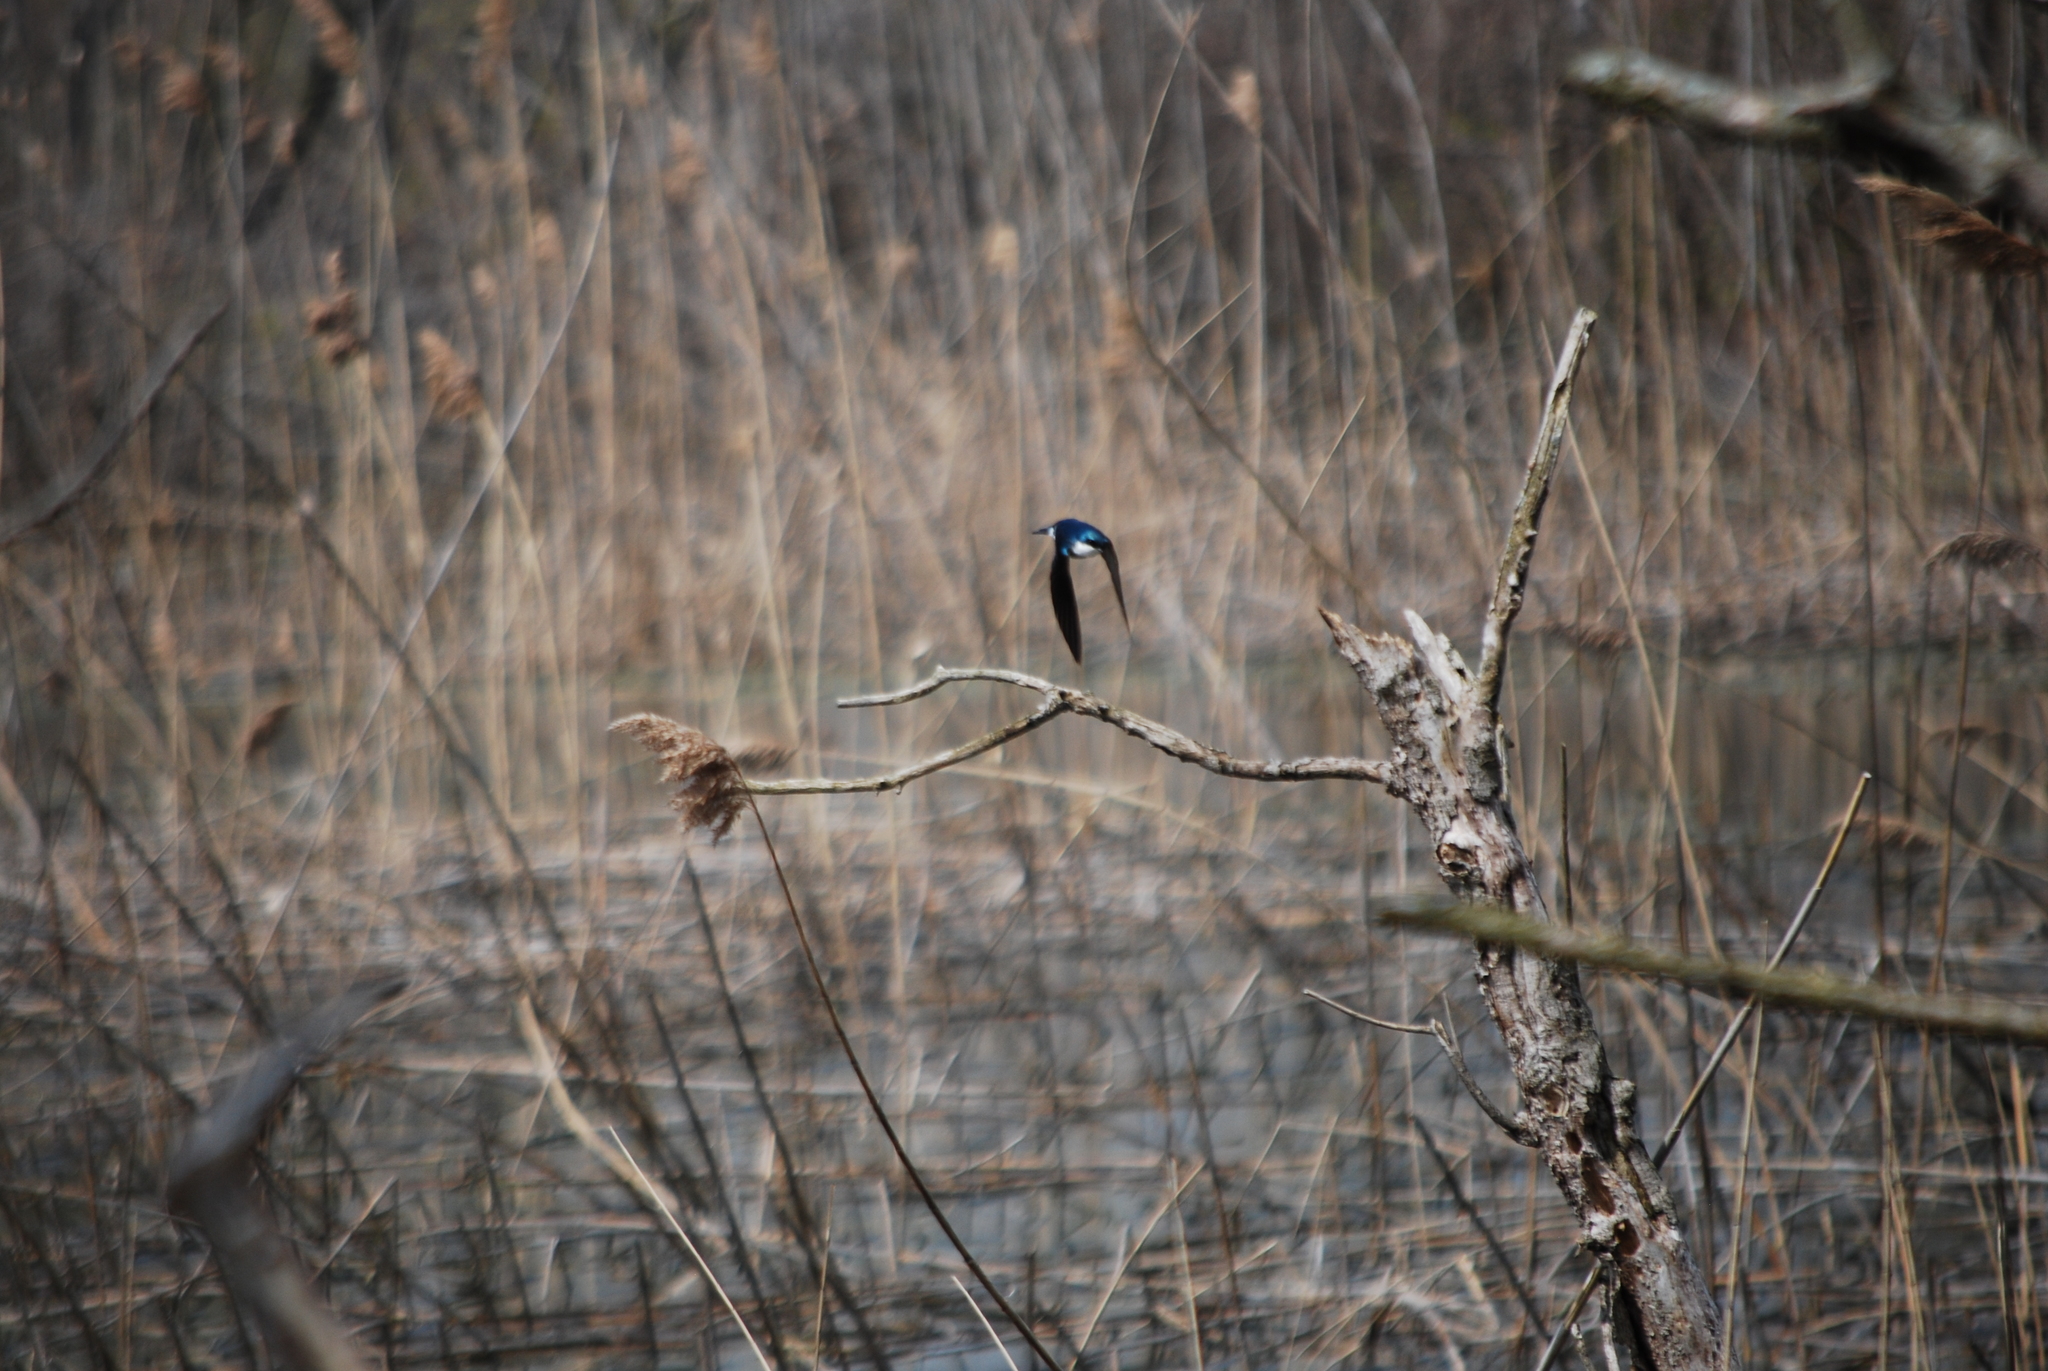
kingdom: Animalia
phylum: Chordata
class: Aves
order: Passeriformes
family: Hirundinidae
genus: Tachycineta
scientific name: Tachycineta bicolor
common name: Tree swallow
